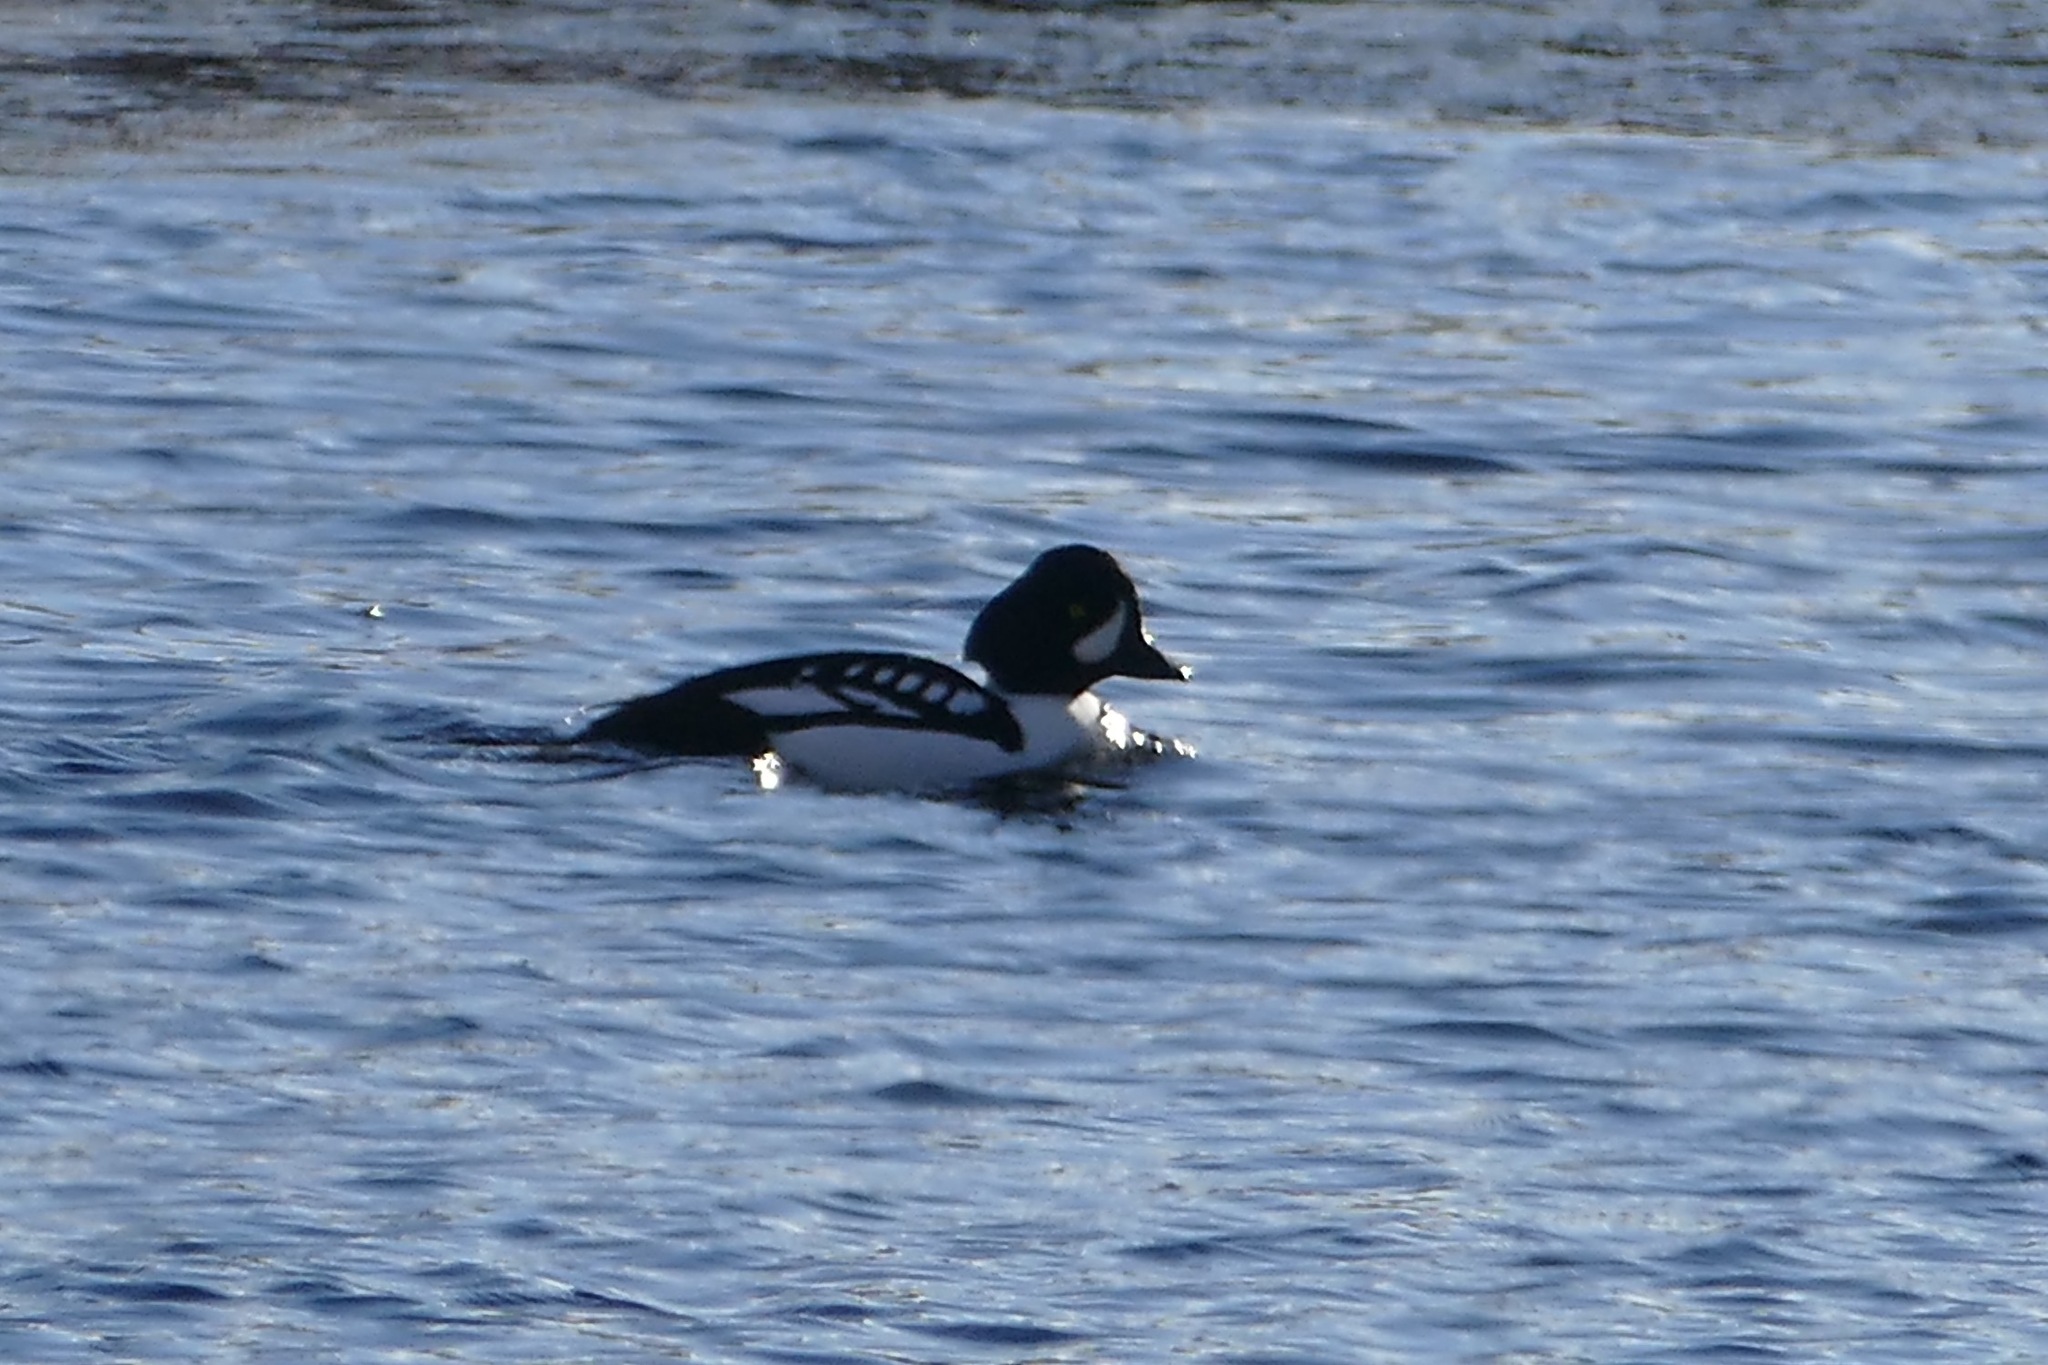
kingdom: Animalia
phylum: Chordata
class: Aves
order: Anseriformes
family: Anatidae
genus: Bucephala
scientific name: Bucephala islandica
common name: Barrow's goldeneye
